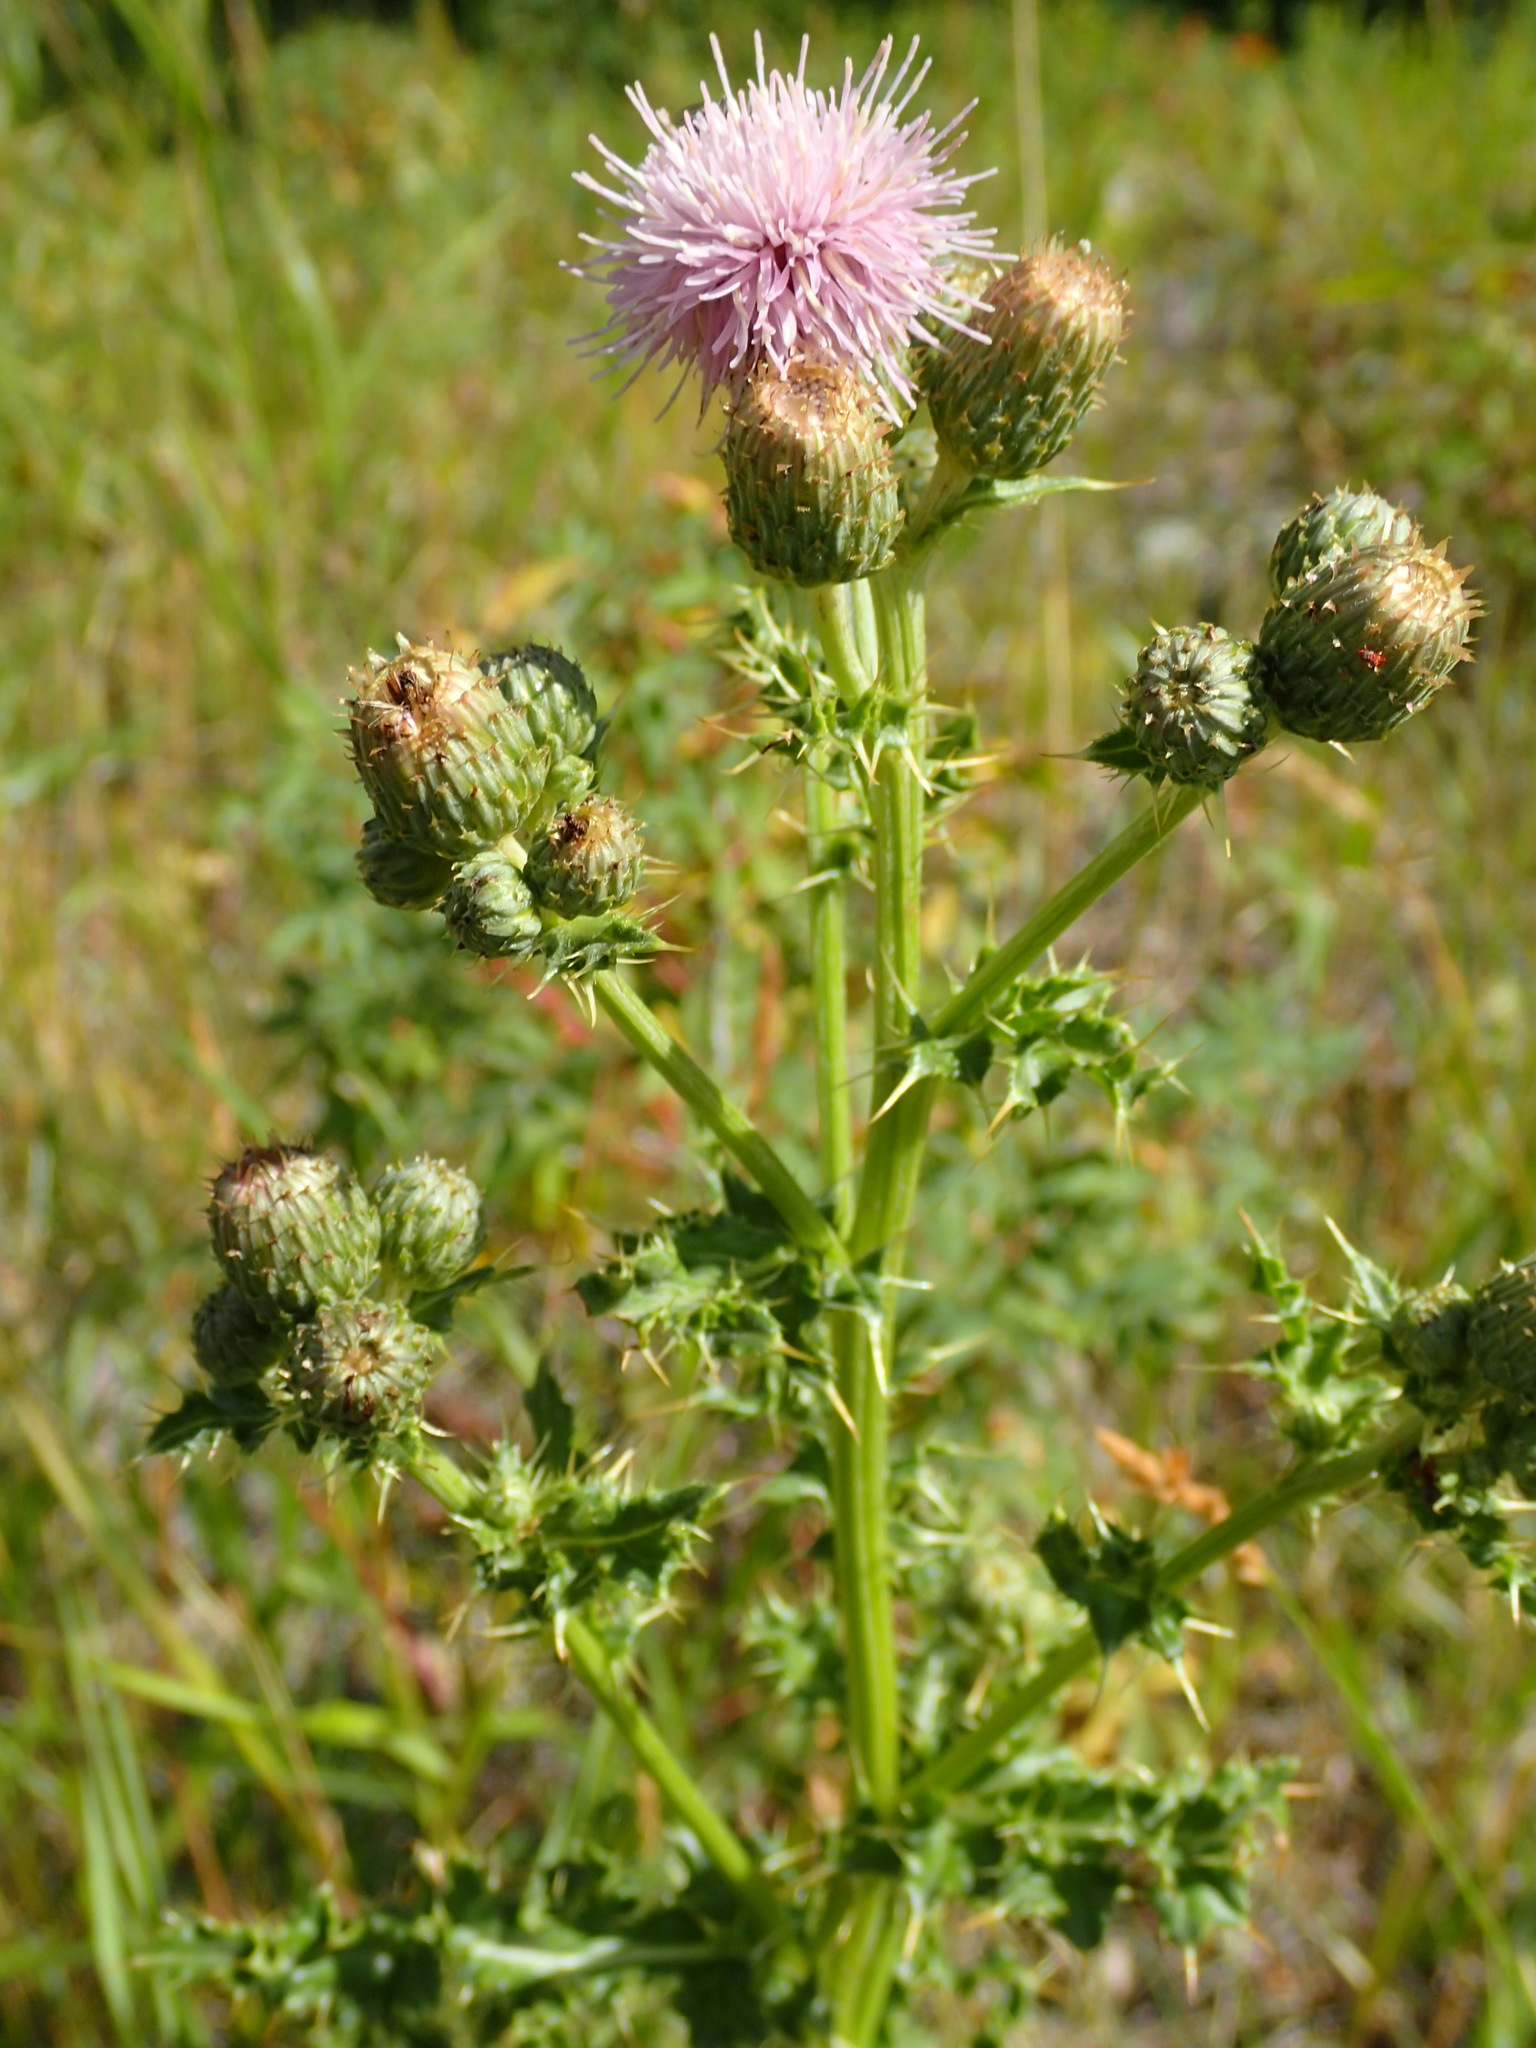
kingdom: Plantae
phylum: Tracheophyta
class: Magnoliopsida
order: Asterales
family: Asteraceae
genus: Cirsium
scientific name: Cirsium arvense
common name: Creeping thistle
